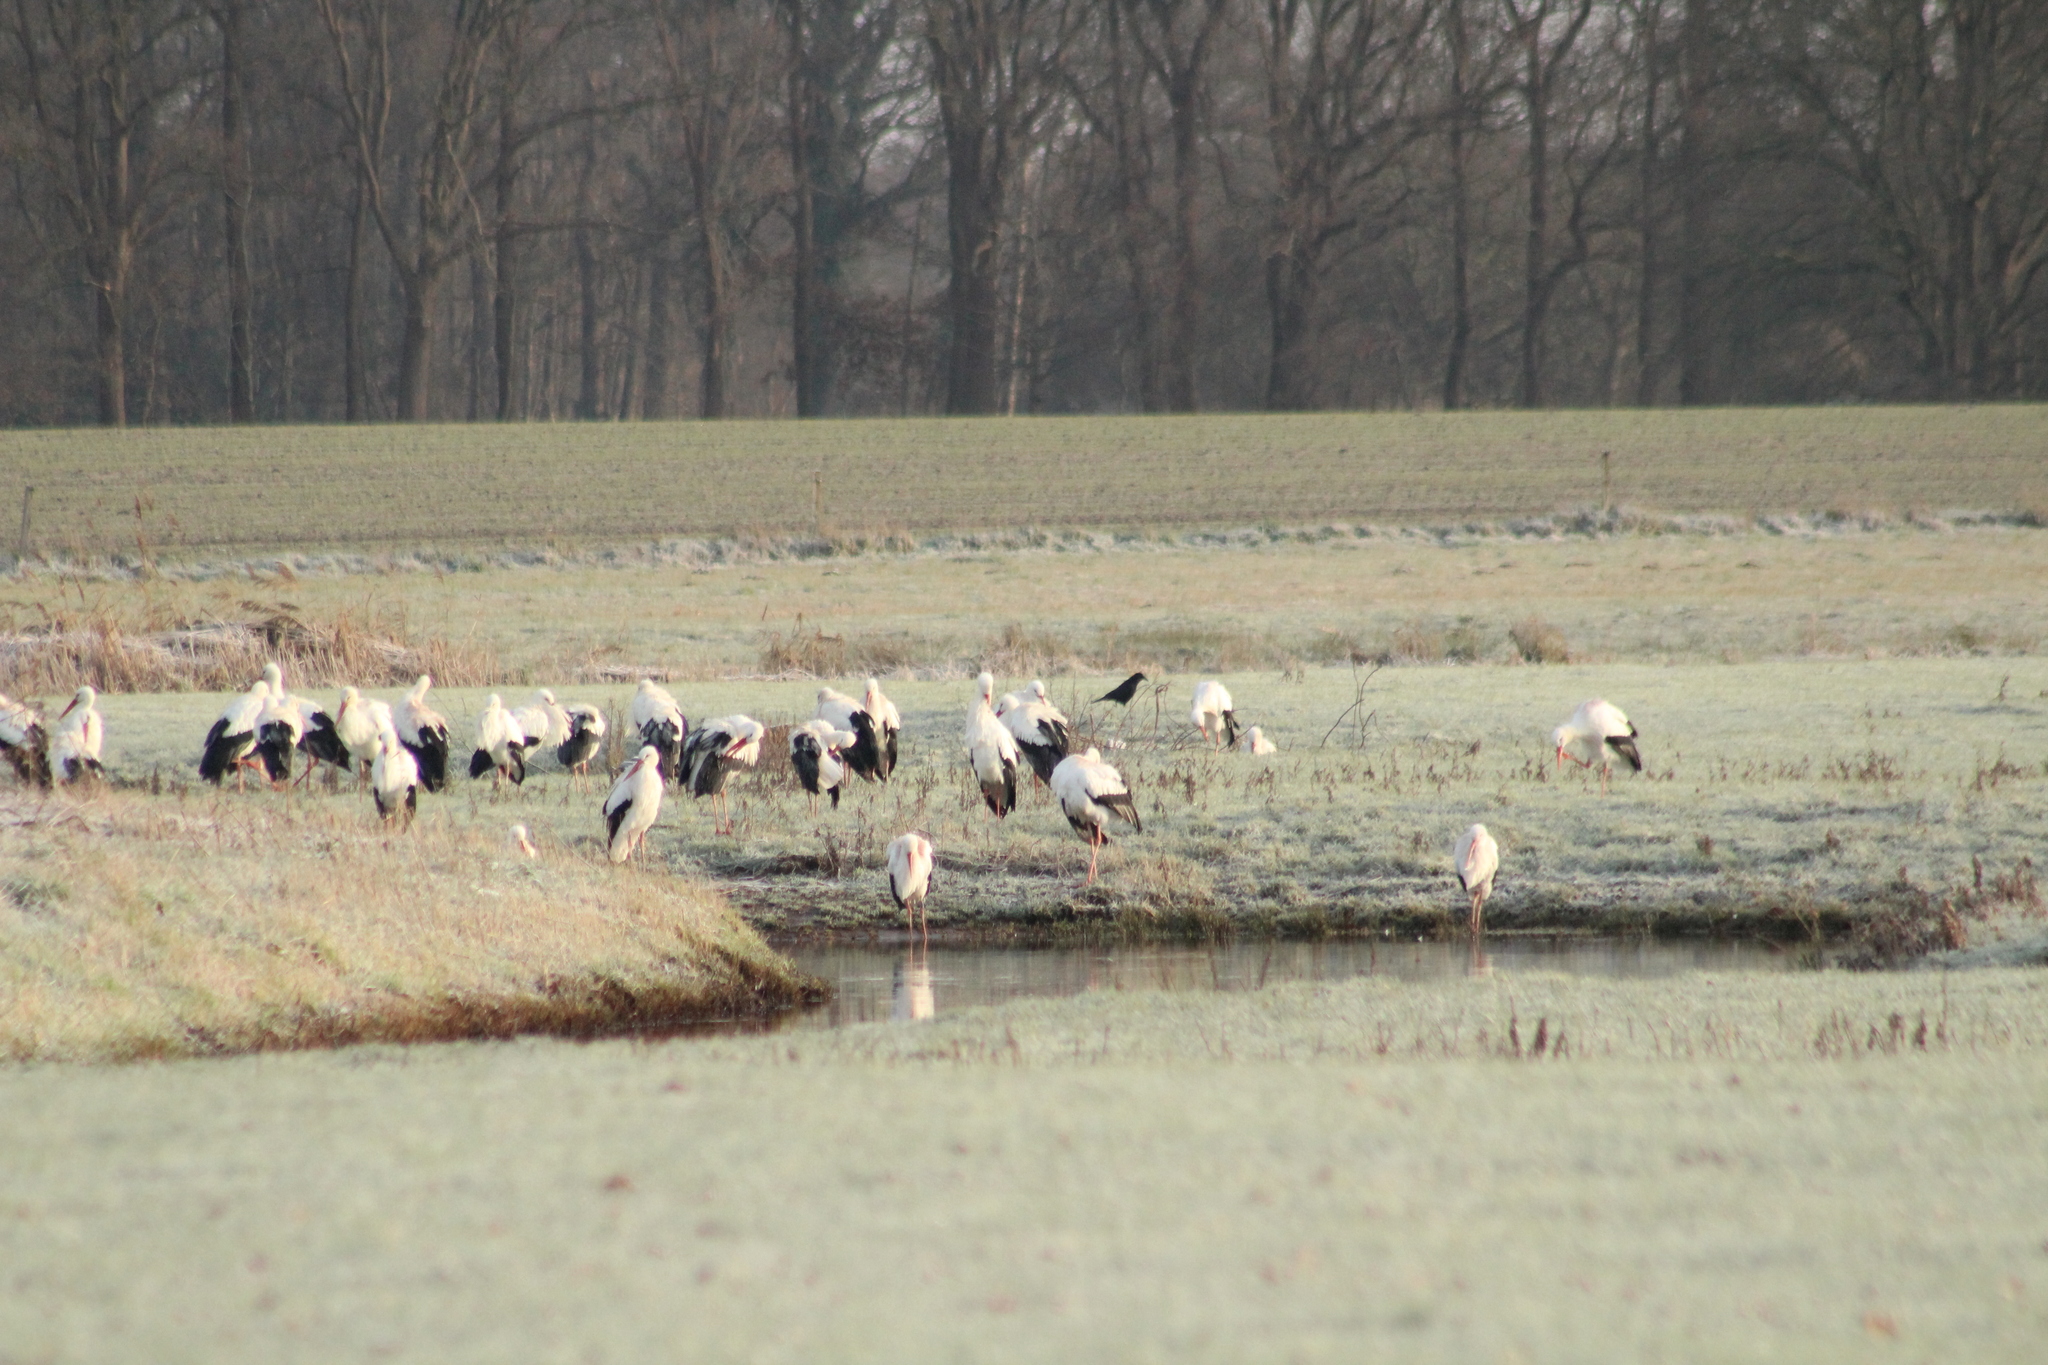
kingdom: Animalia
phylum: Chordata
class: Aves
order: Ciconiiformes
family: Ciconiidae
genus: Ciconia
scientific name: Ciconia ciconia
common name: White stork
